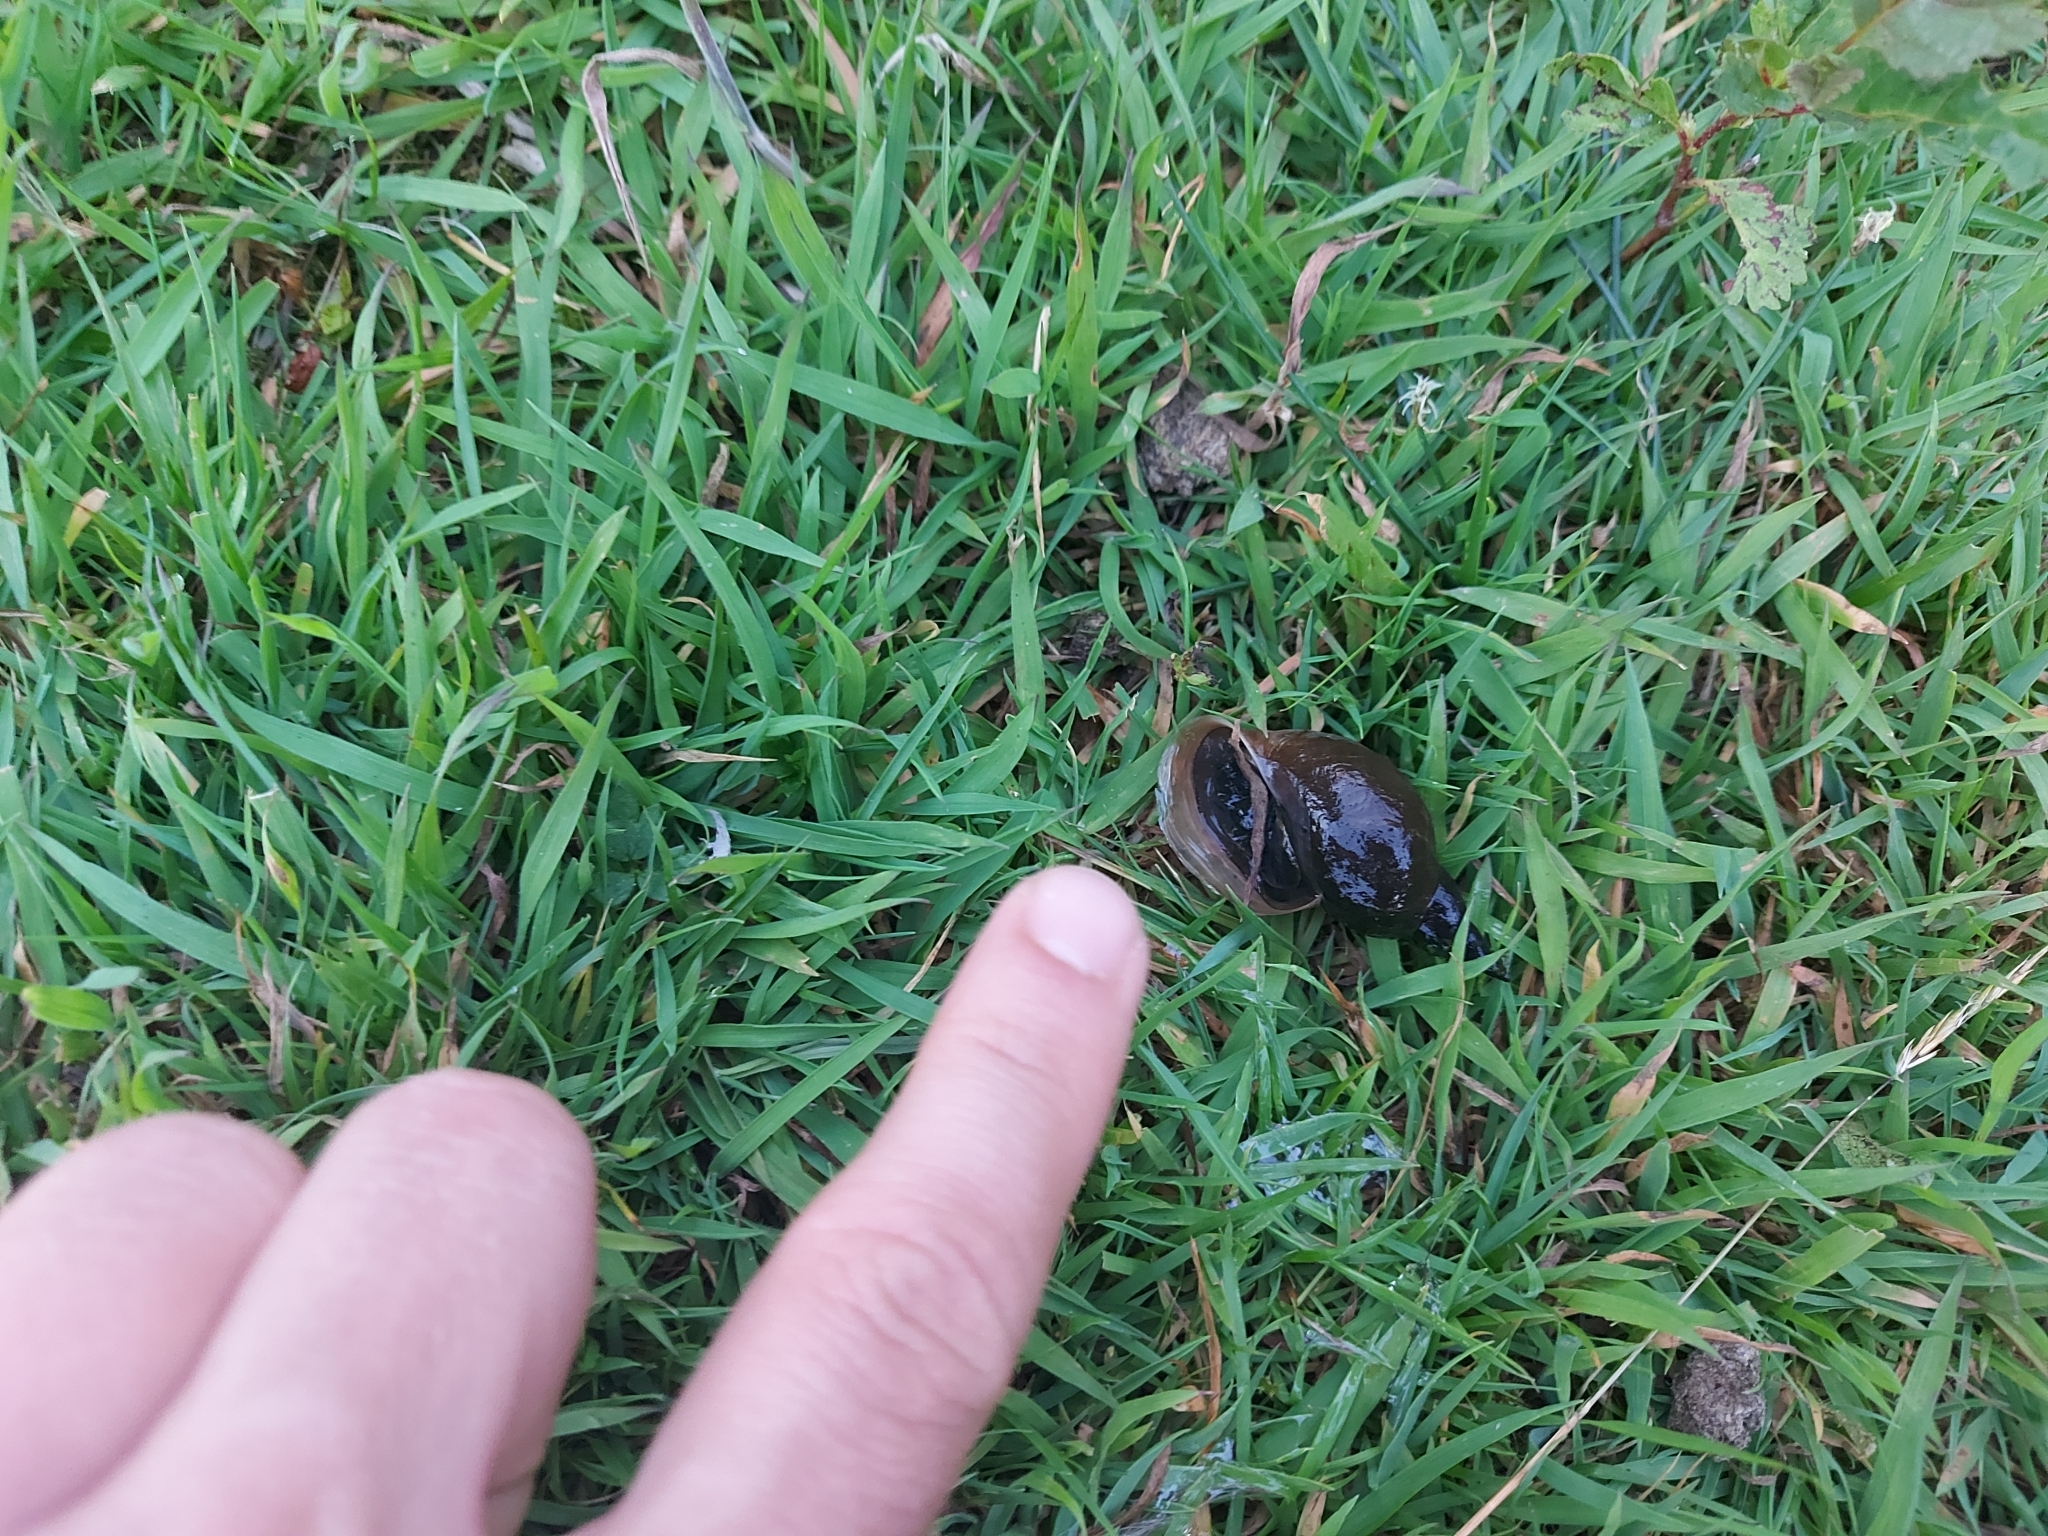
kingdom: Animalia
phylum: Mollusca
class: Gastropoda
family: Lymnaeidae
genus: Lymnaea
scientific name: Lymnaea stagnalis
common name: Great pond snail
